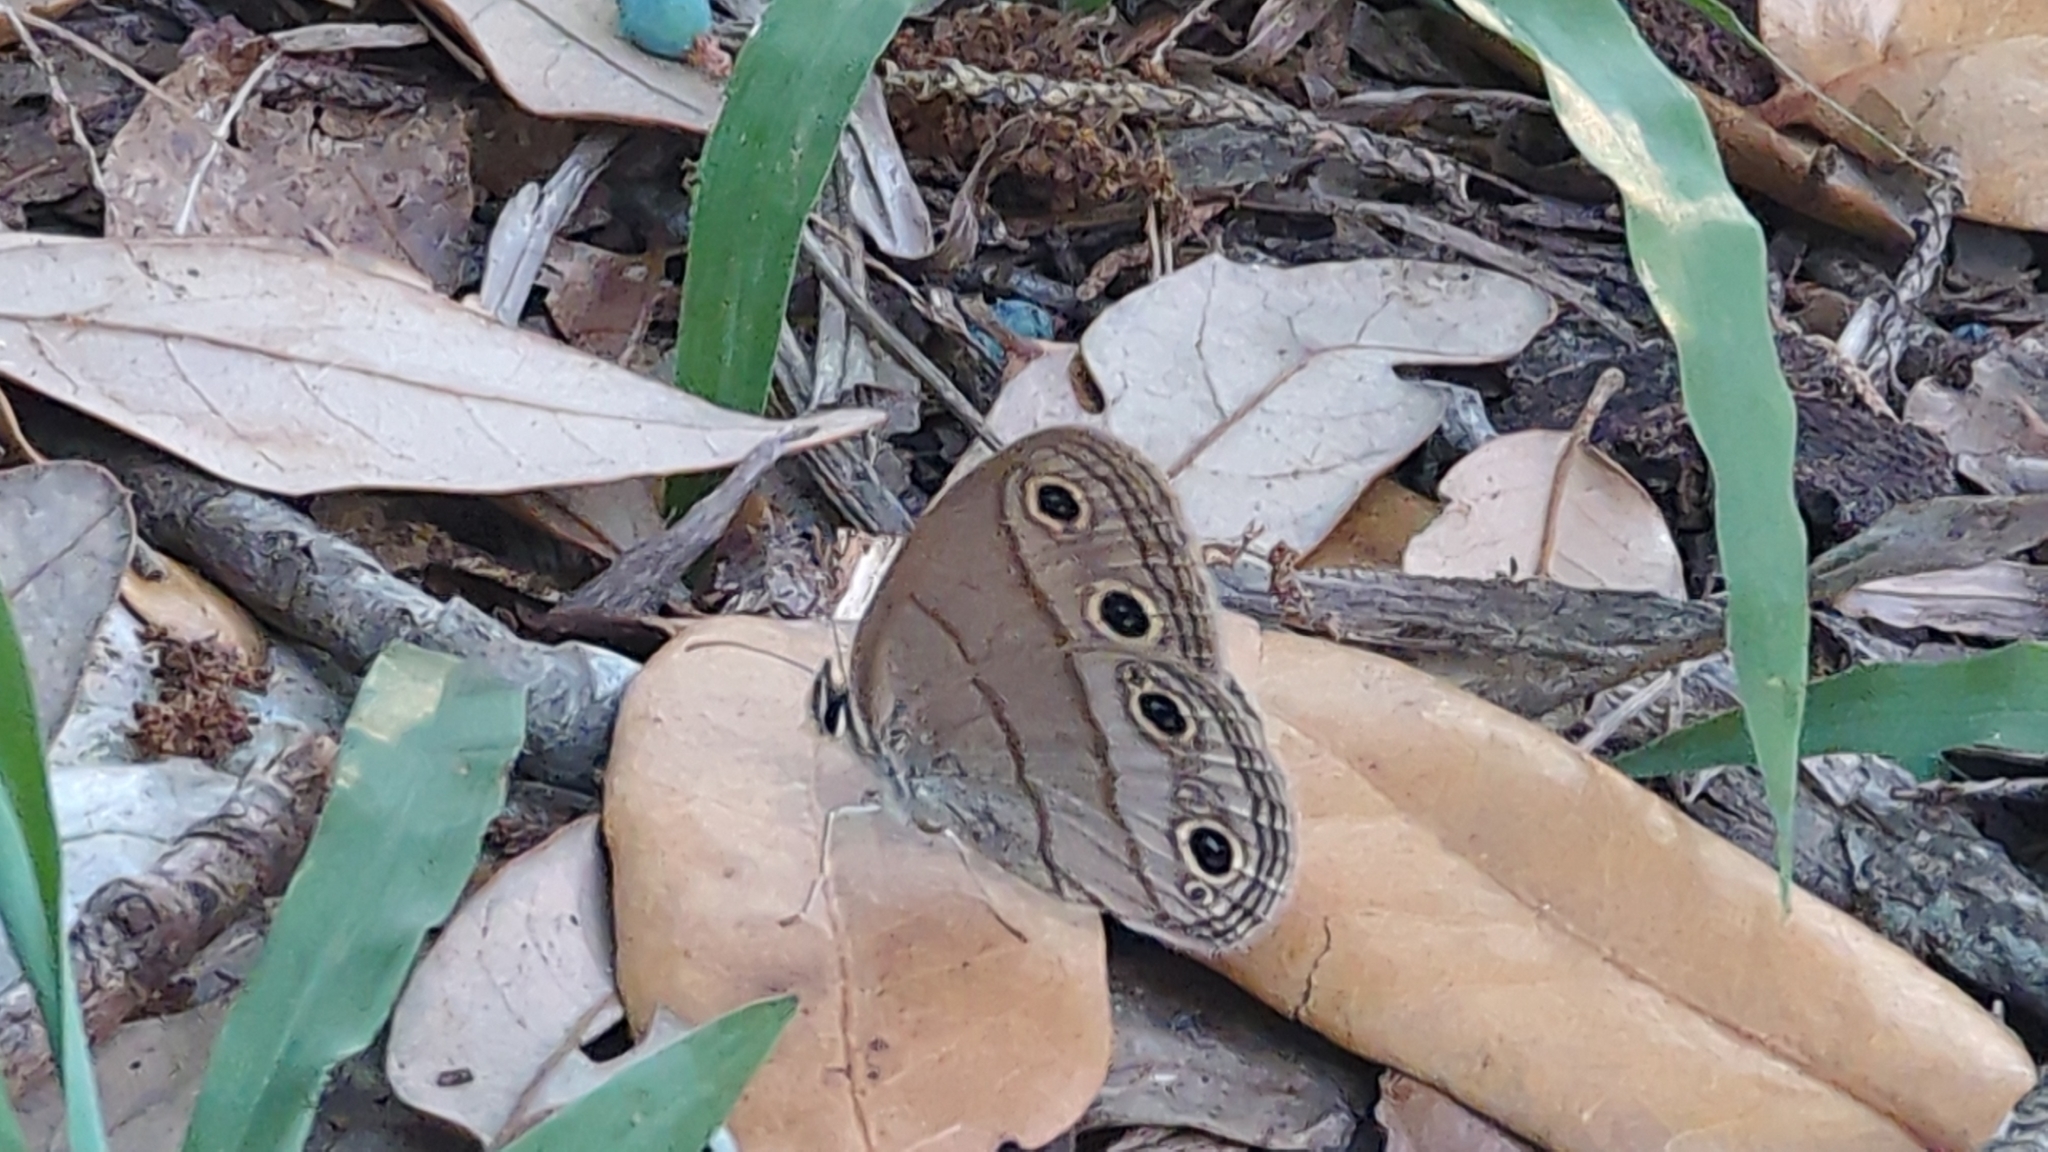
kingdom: Animalia
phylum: Arthropoda
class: Insecta
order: Lepidoptera
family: Nymphalidae
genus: Euptychia
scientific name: Euptychia cymela
